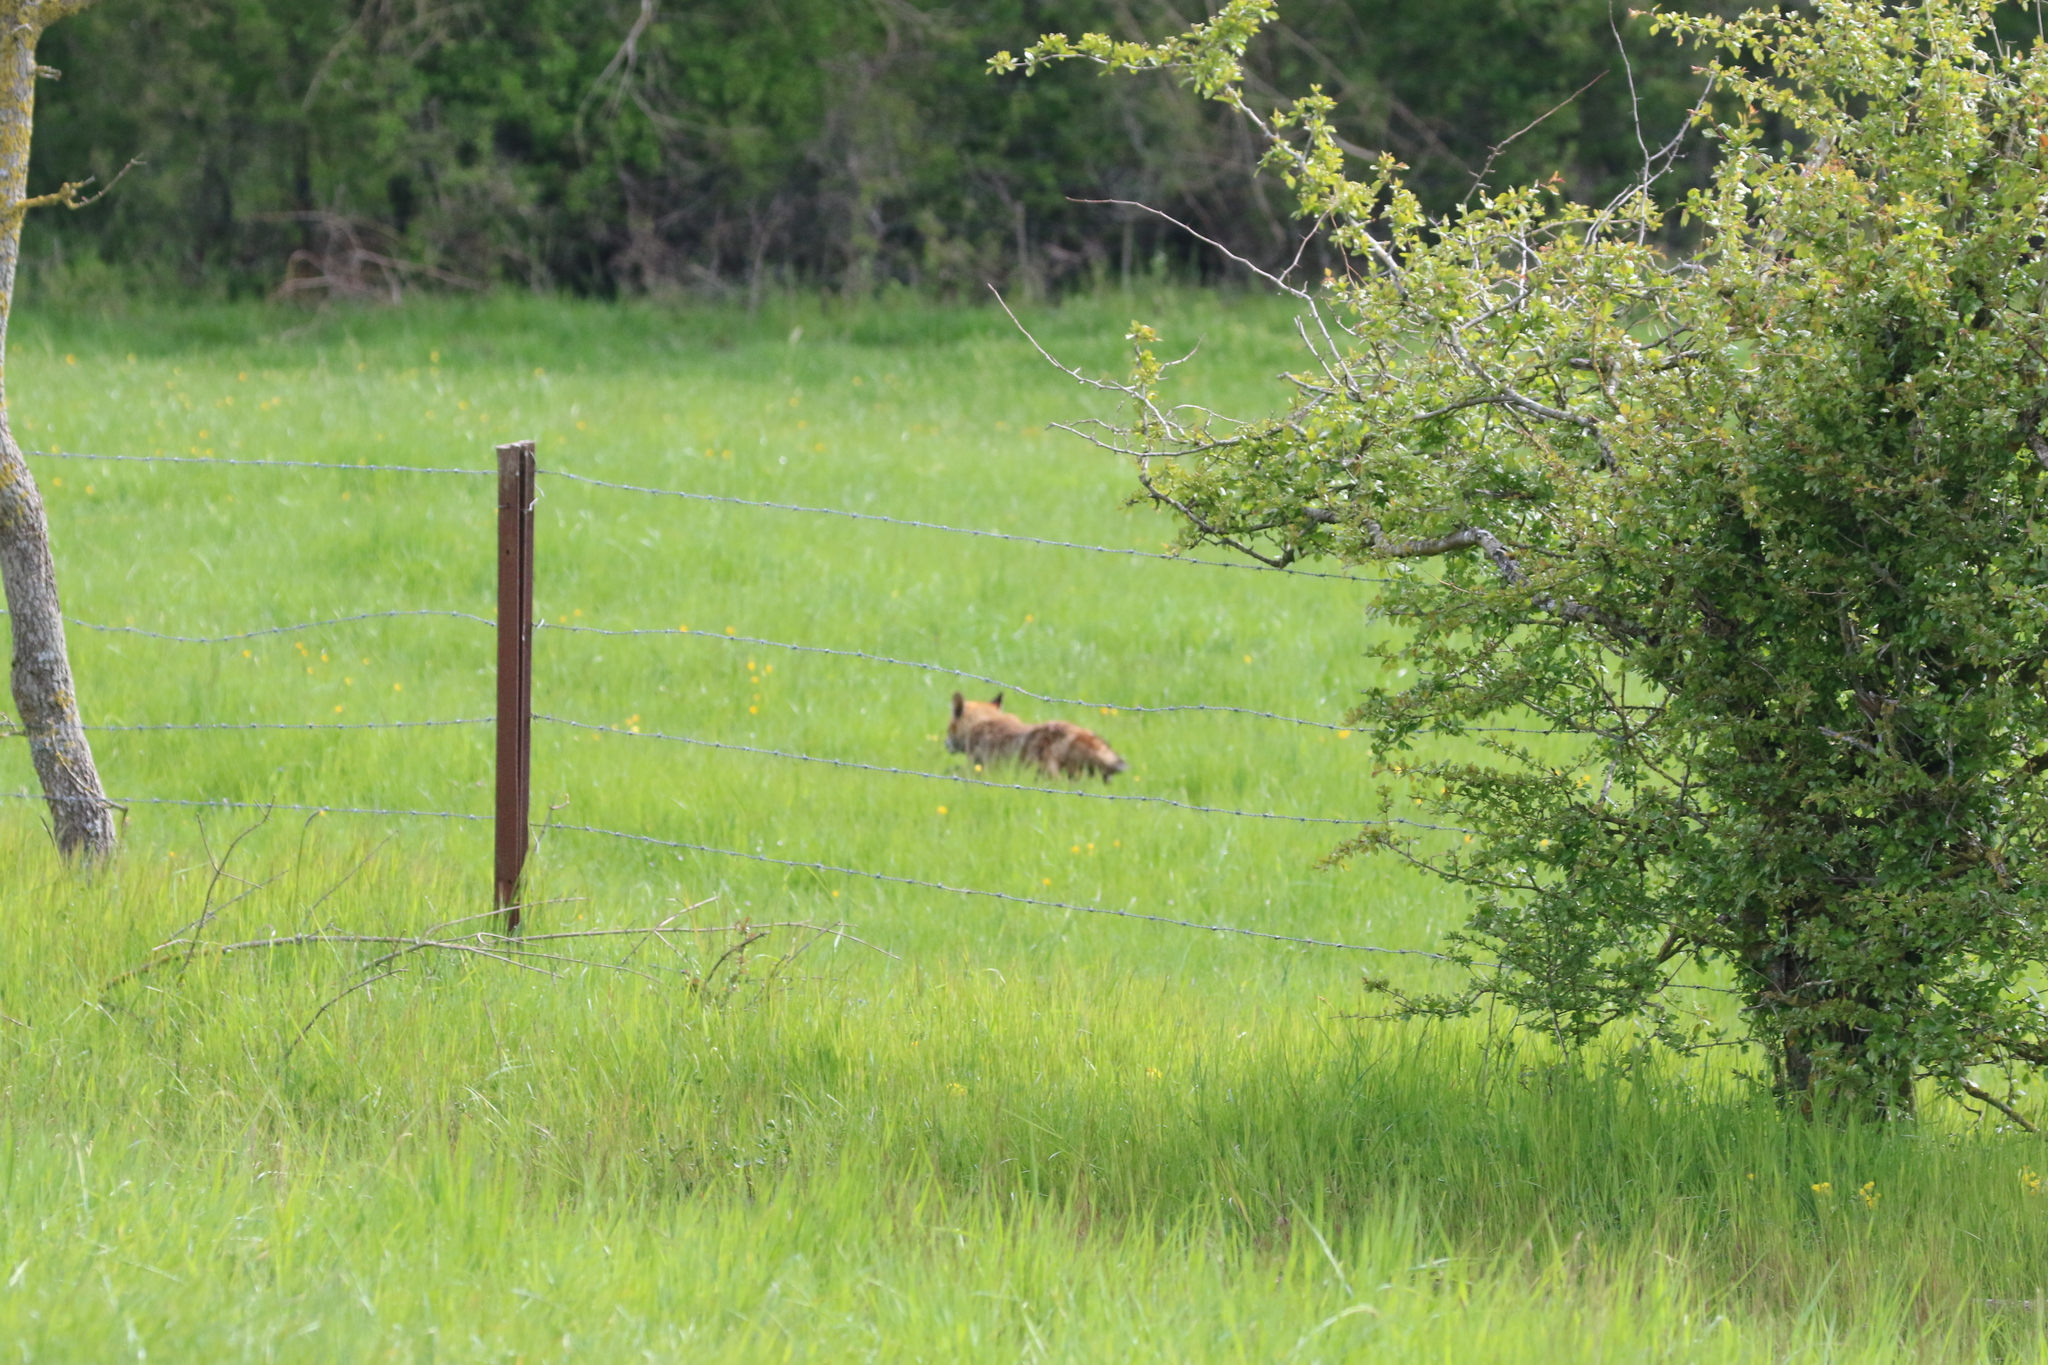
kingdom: Animalia
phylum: Chordata
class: Mammalia
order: Carnivora
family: Canidae
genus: Vulpes
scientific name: Vulpes vulpes
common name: Red fox
